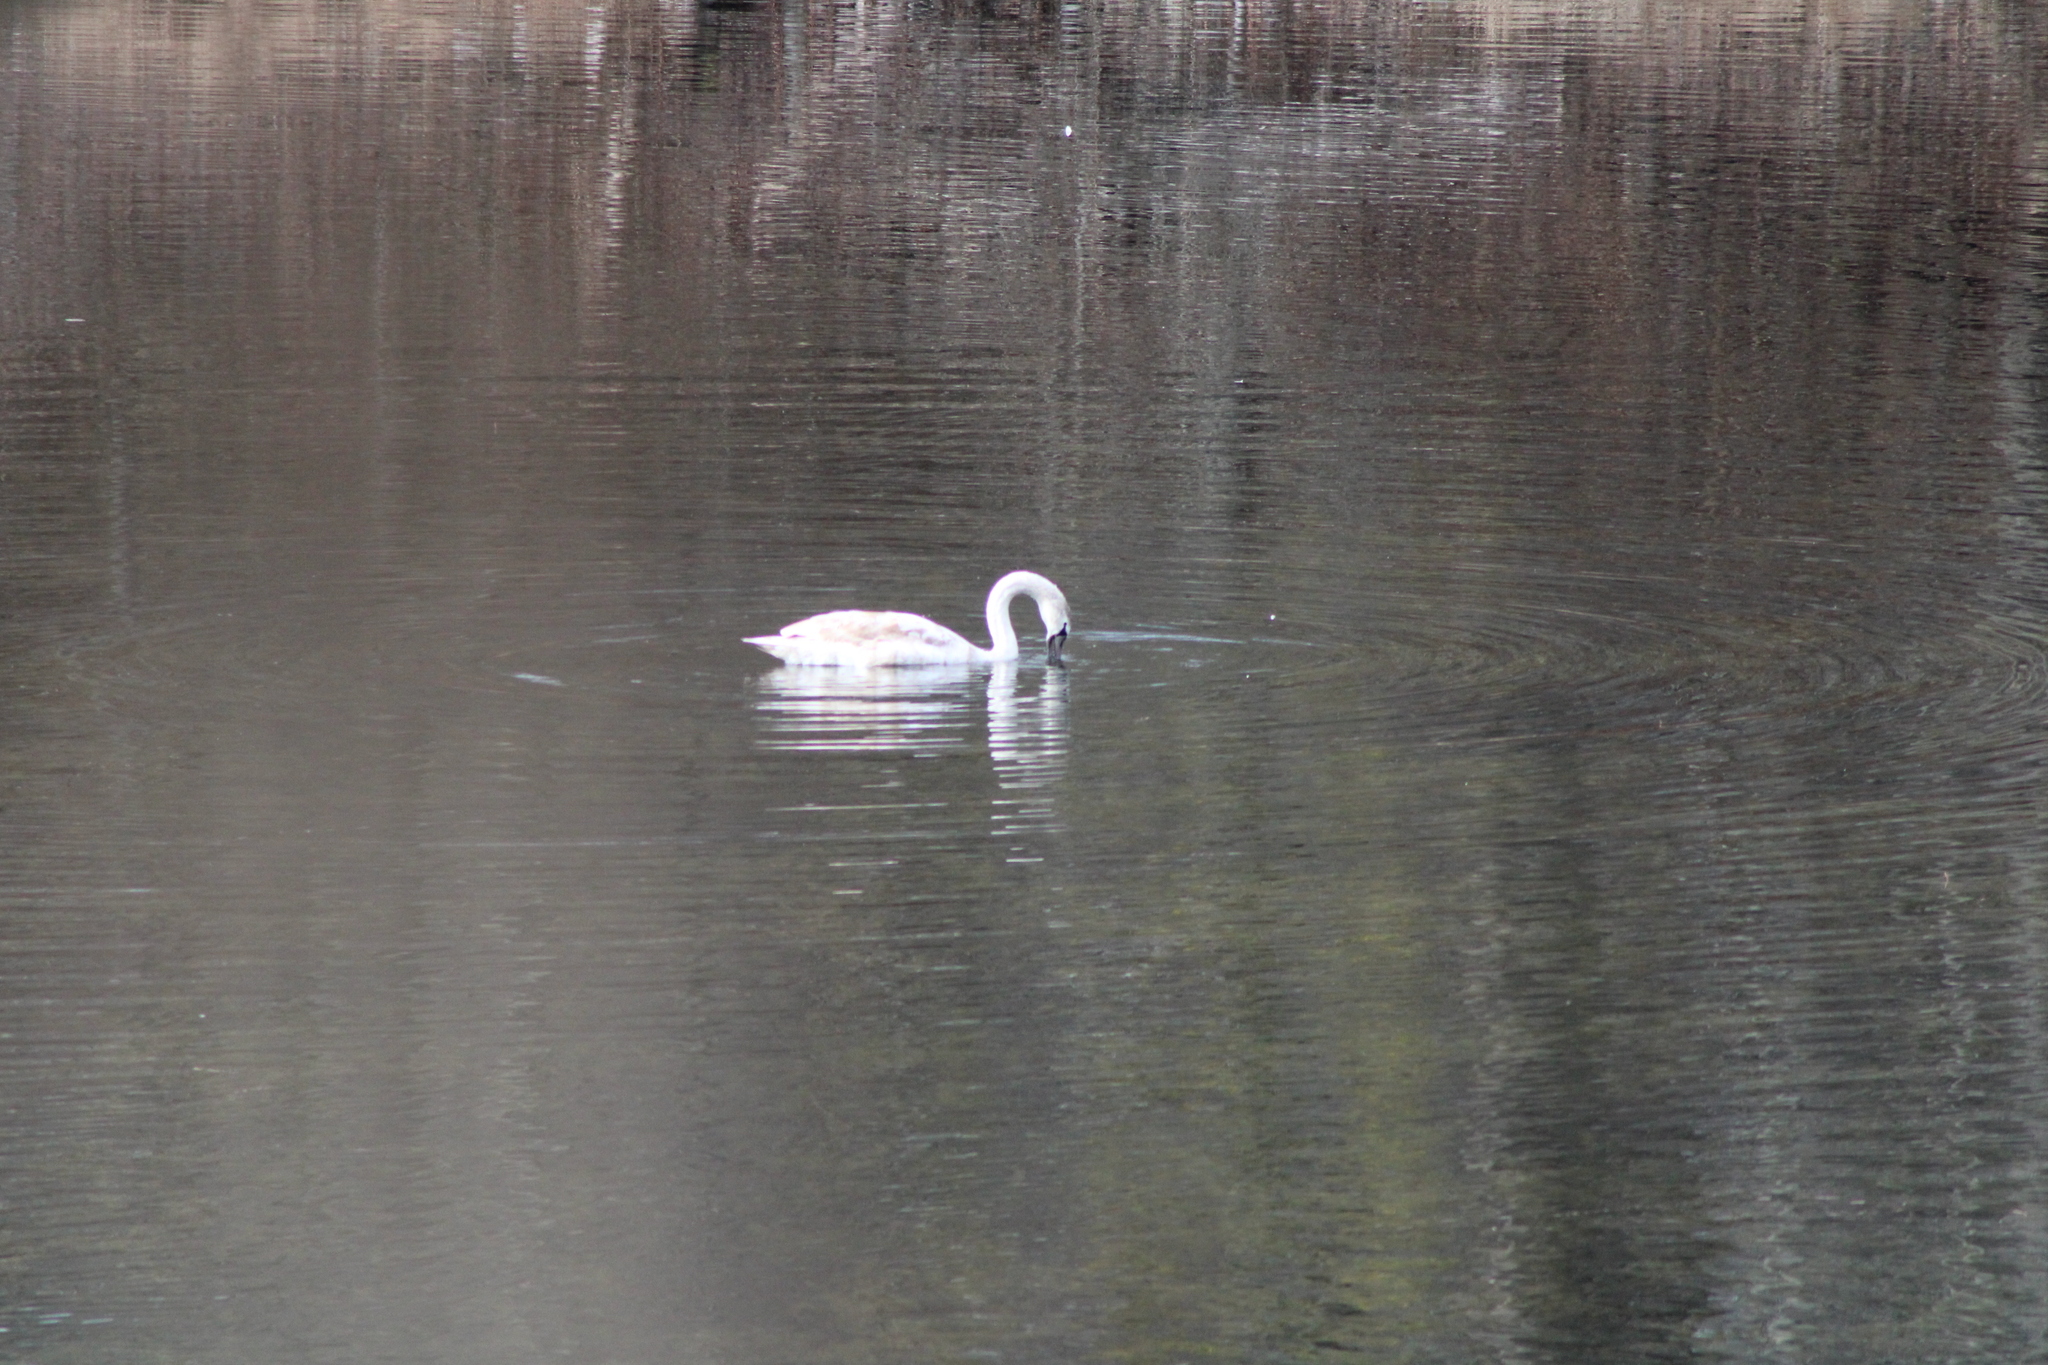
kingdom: Animalia
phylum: Chordata
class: Aves
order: Anseriformes
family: Anatidae
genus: Cygnus
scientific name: Cygnus olor
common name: Mute swan
